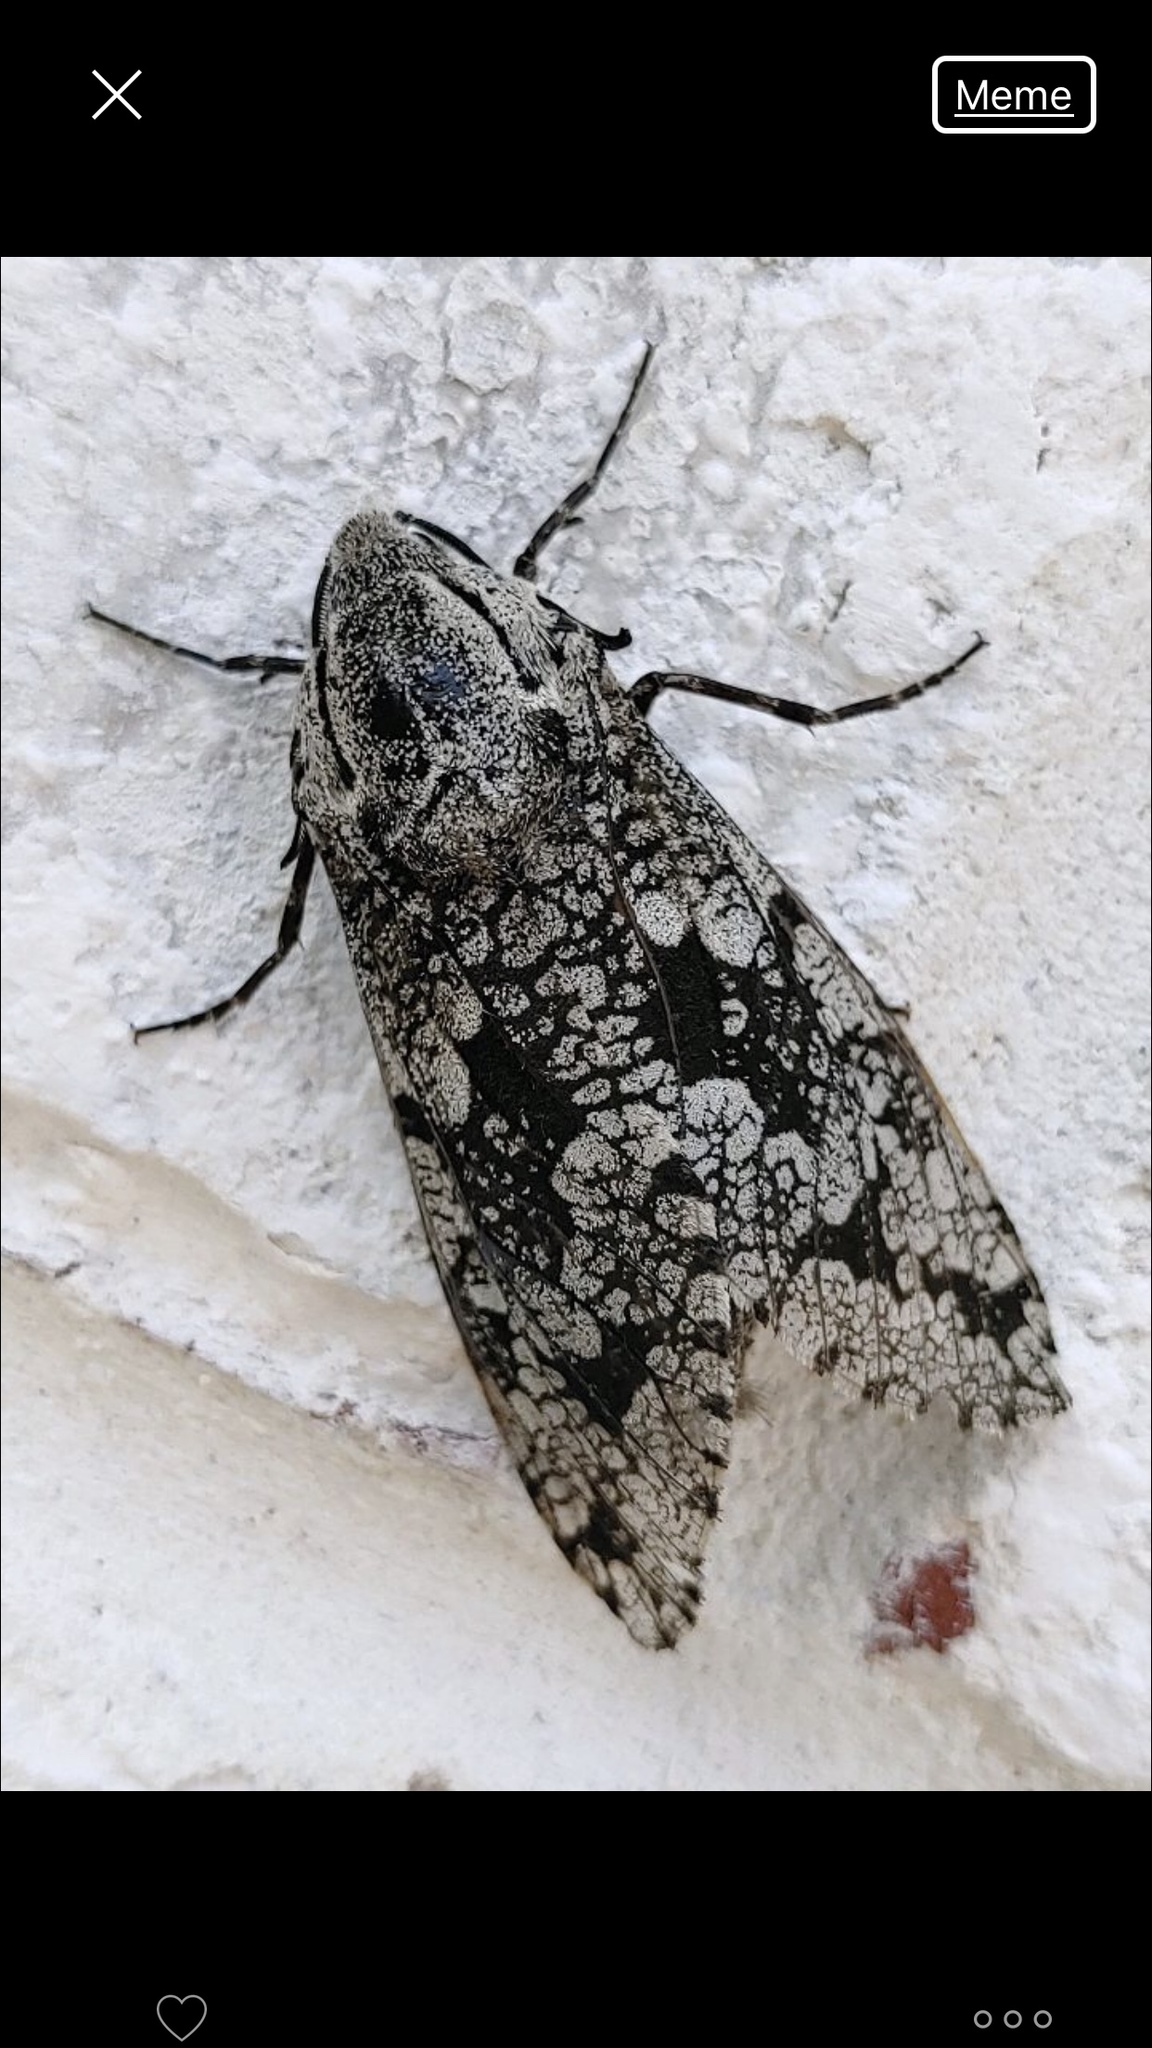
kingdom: Animalia
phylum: Arthropoda
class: Insecta
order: Lepidoptera
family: Cossidae
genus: Prionoxystus
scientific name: Prionoxystus robiniae
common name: Carpenterworm
